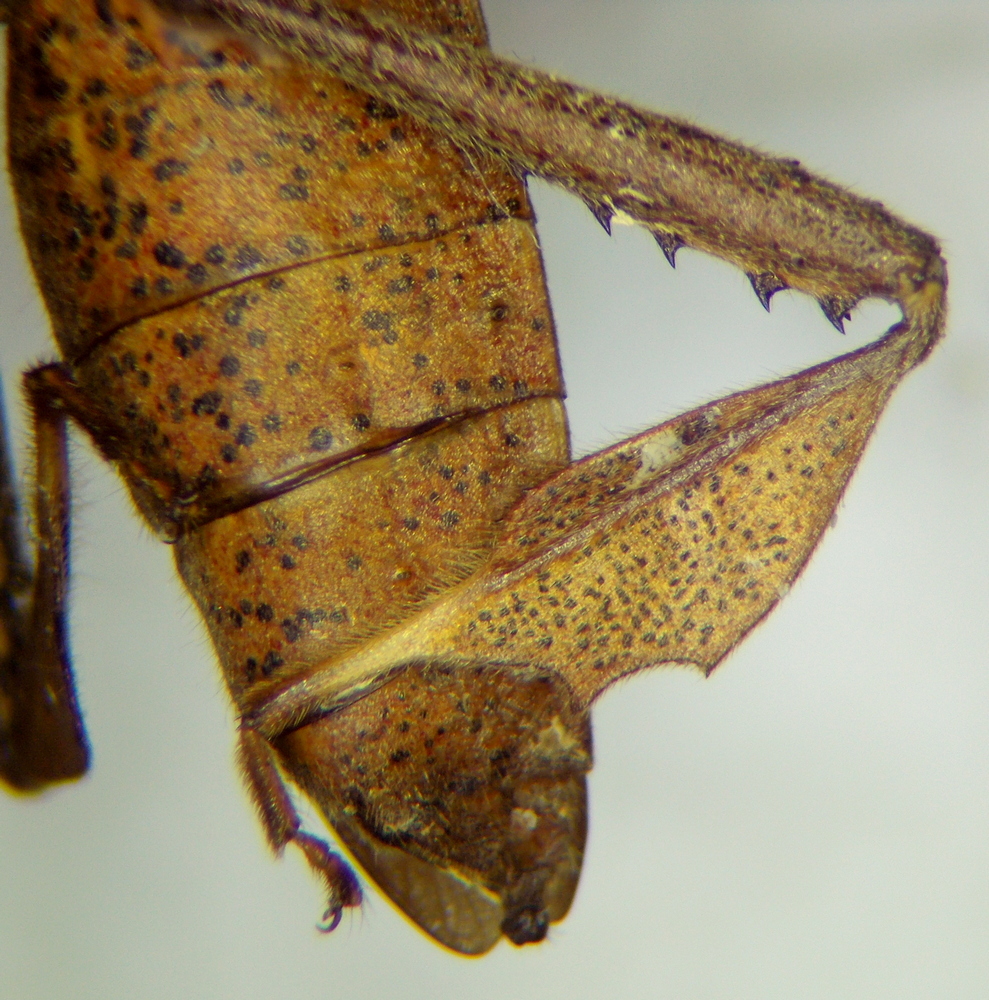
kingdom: Animalia
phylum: Arthropoda
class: Insecta
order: Hemiptera
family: Coreidae
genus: Leptoglossus
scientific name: Leptoglossus phyllopus
